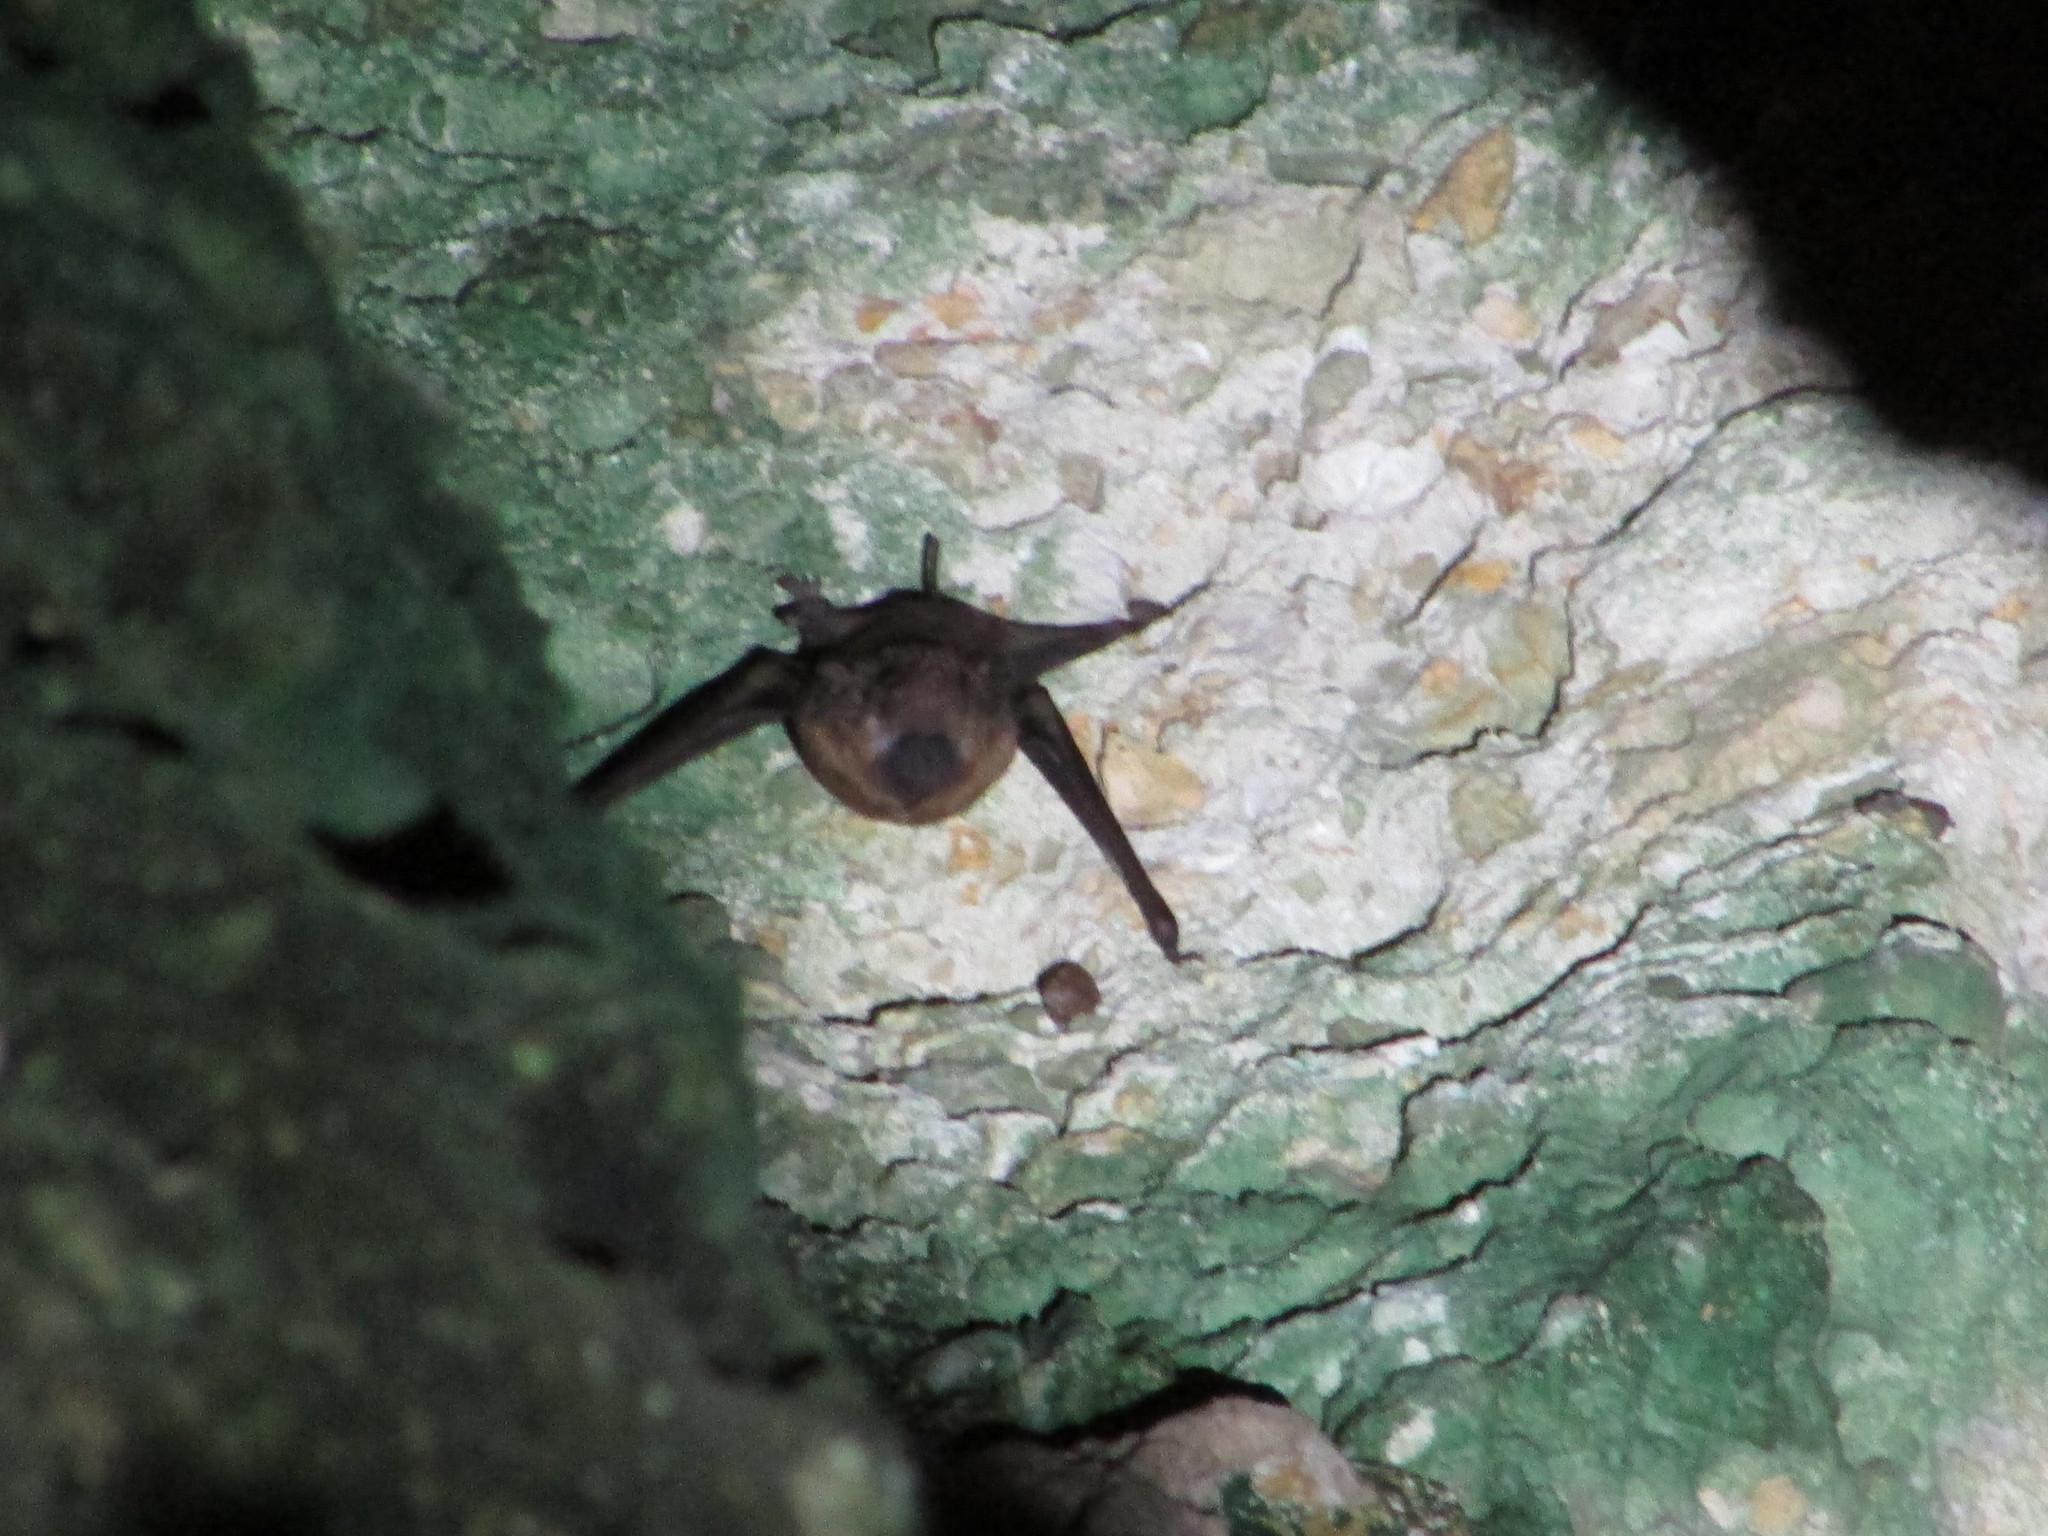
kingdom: Animalia
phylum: Chordata
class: Mammalia
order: Chiroptera
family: Emballonuridae
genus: Taphozous
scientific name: Taphozous melanopogon
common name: Black-bearded tomb bat
